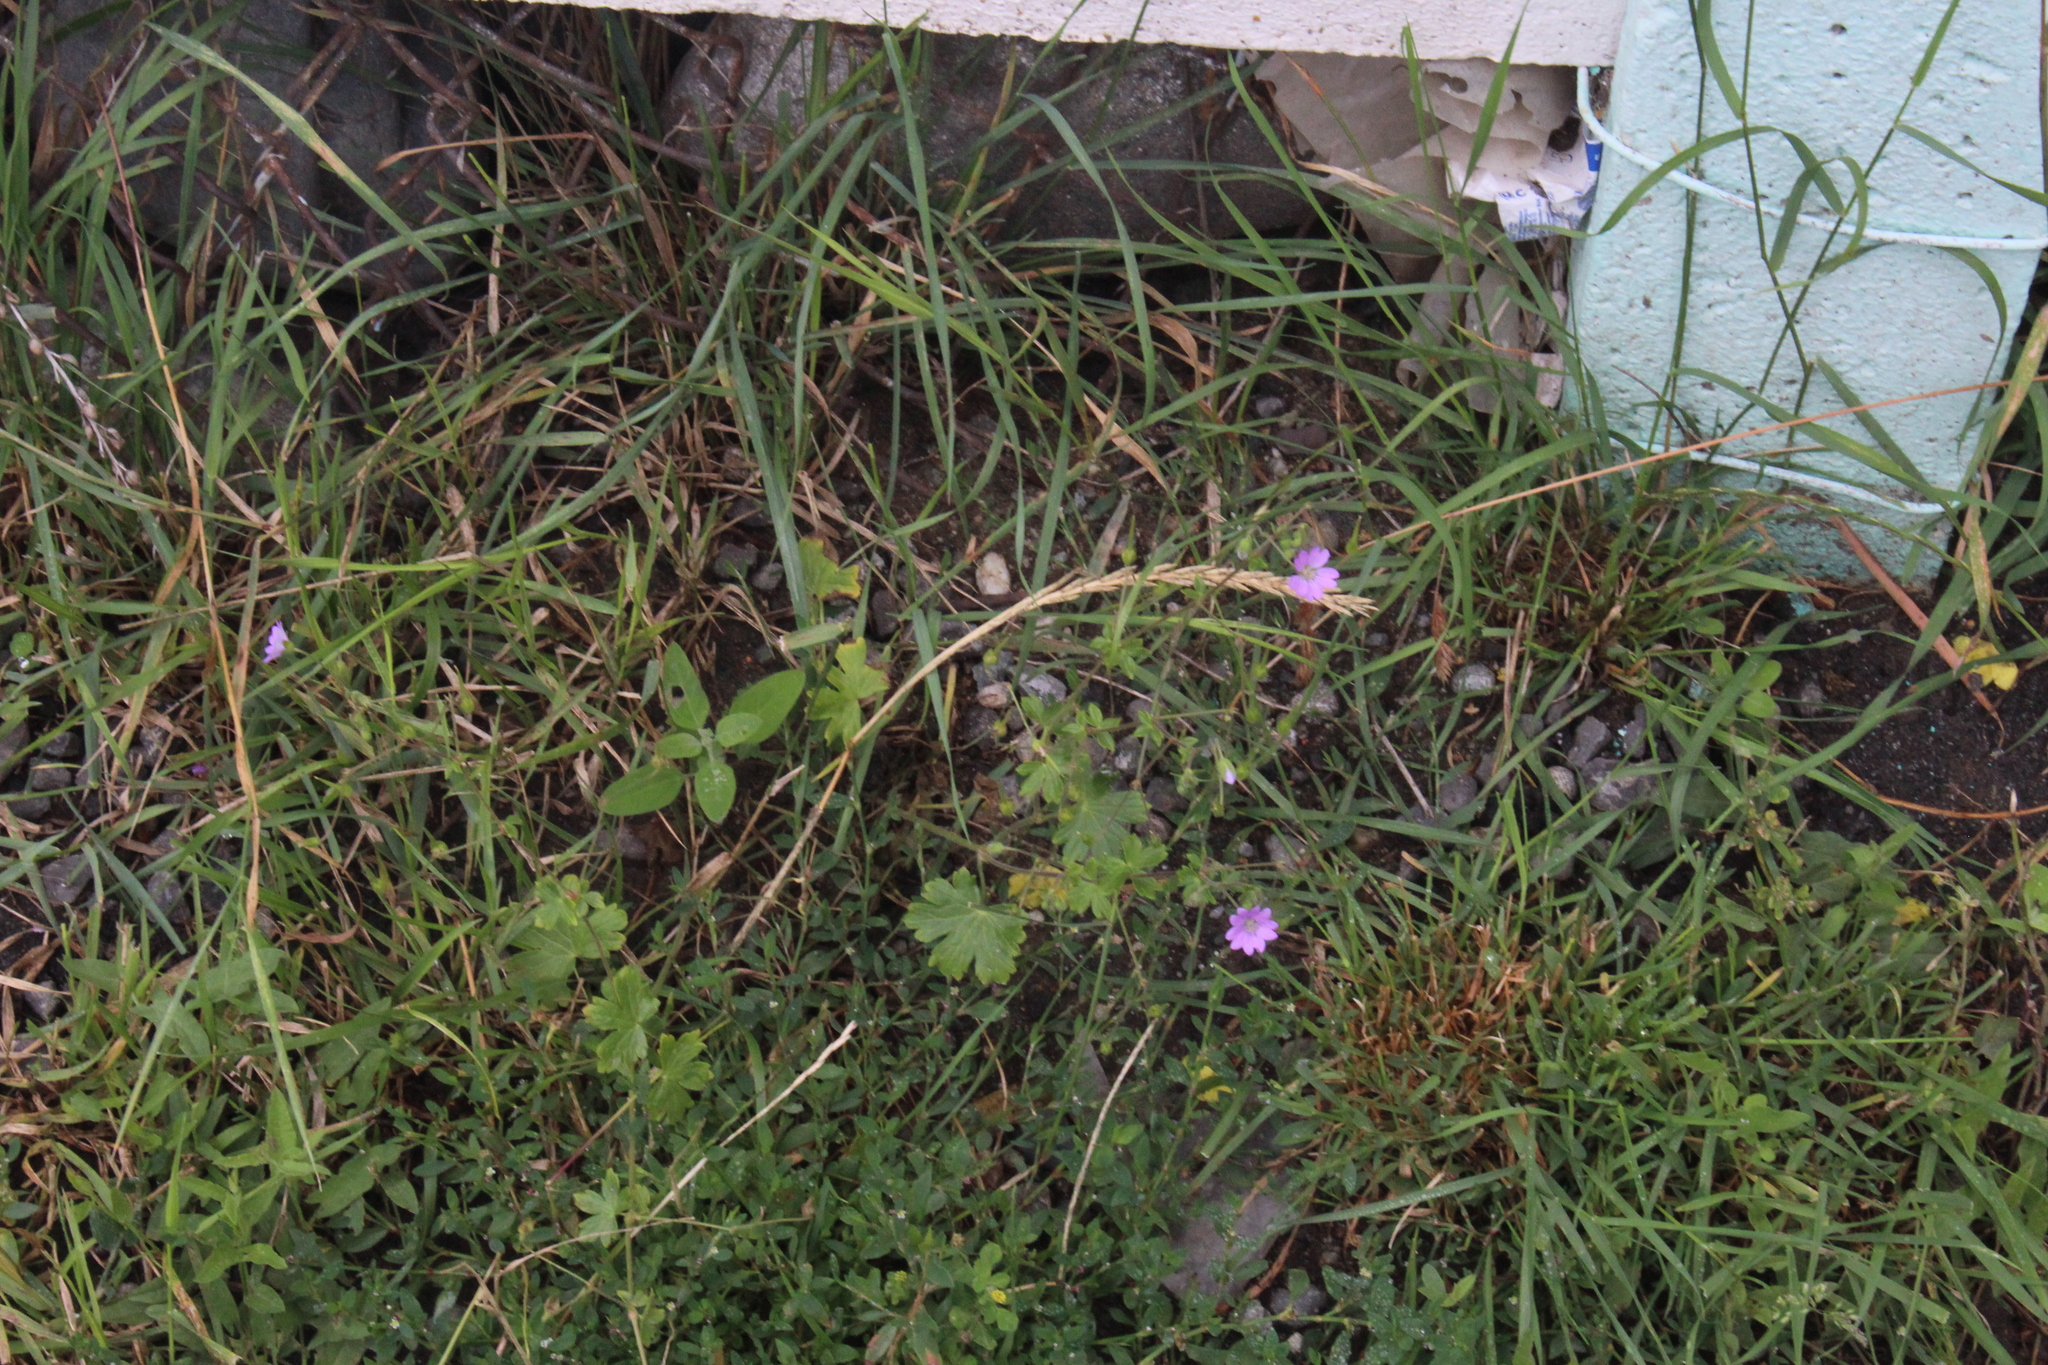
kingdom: Plantae
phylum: Tracheophyta
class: Magnoliopsida
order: Geraniales
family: Geraniaceae
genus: Geranium
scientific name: Geranium pyrenaicum
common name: Hedgerow crane's-bill
